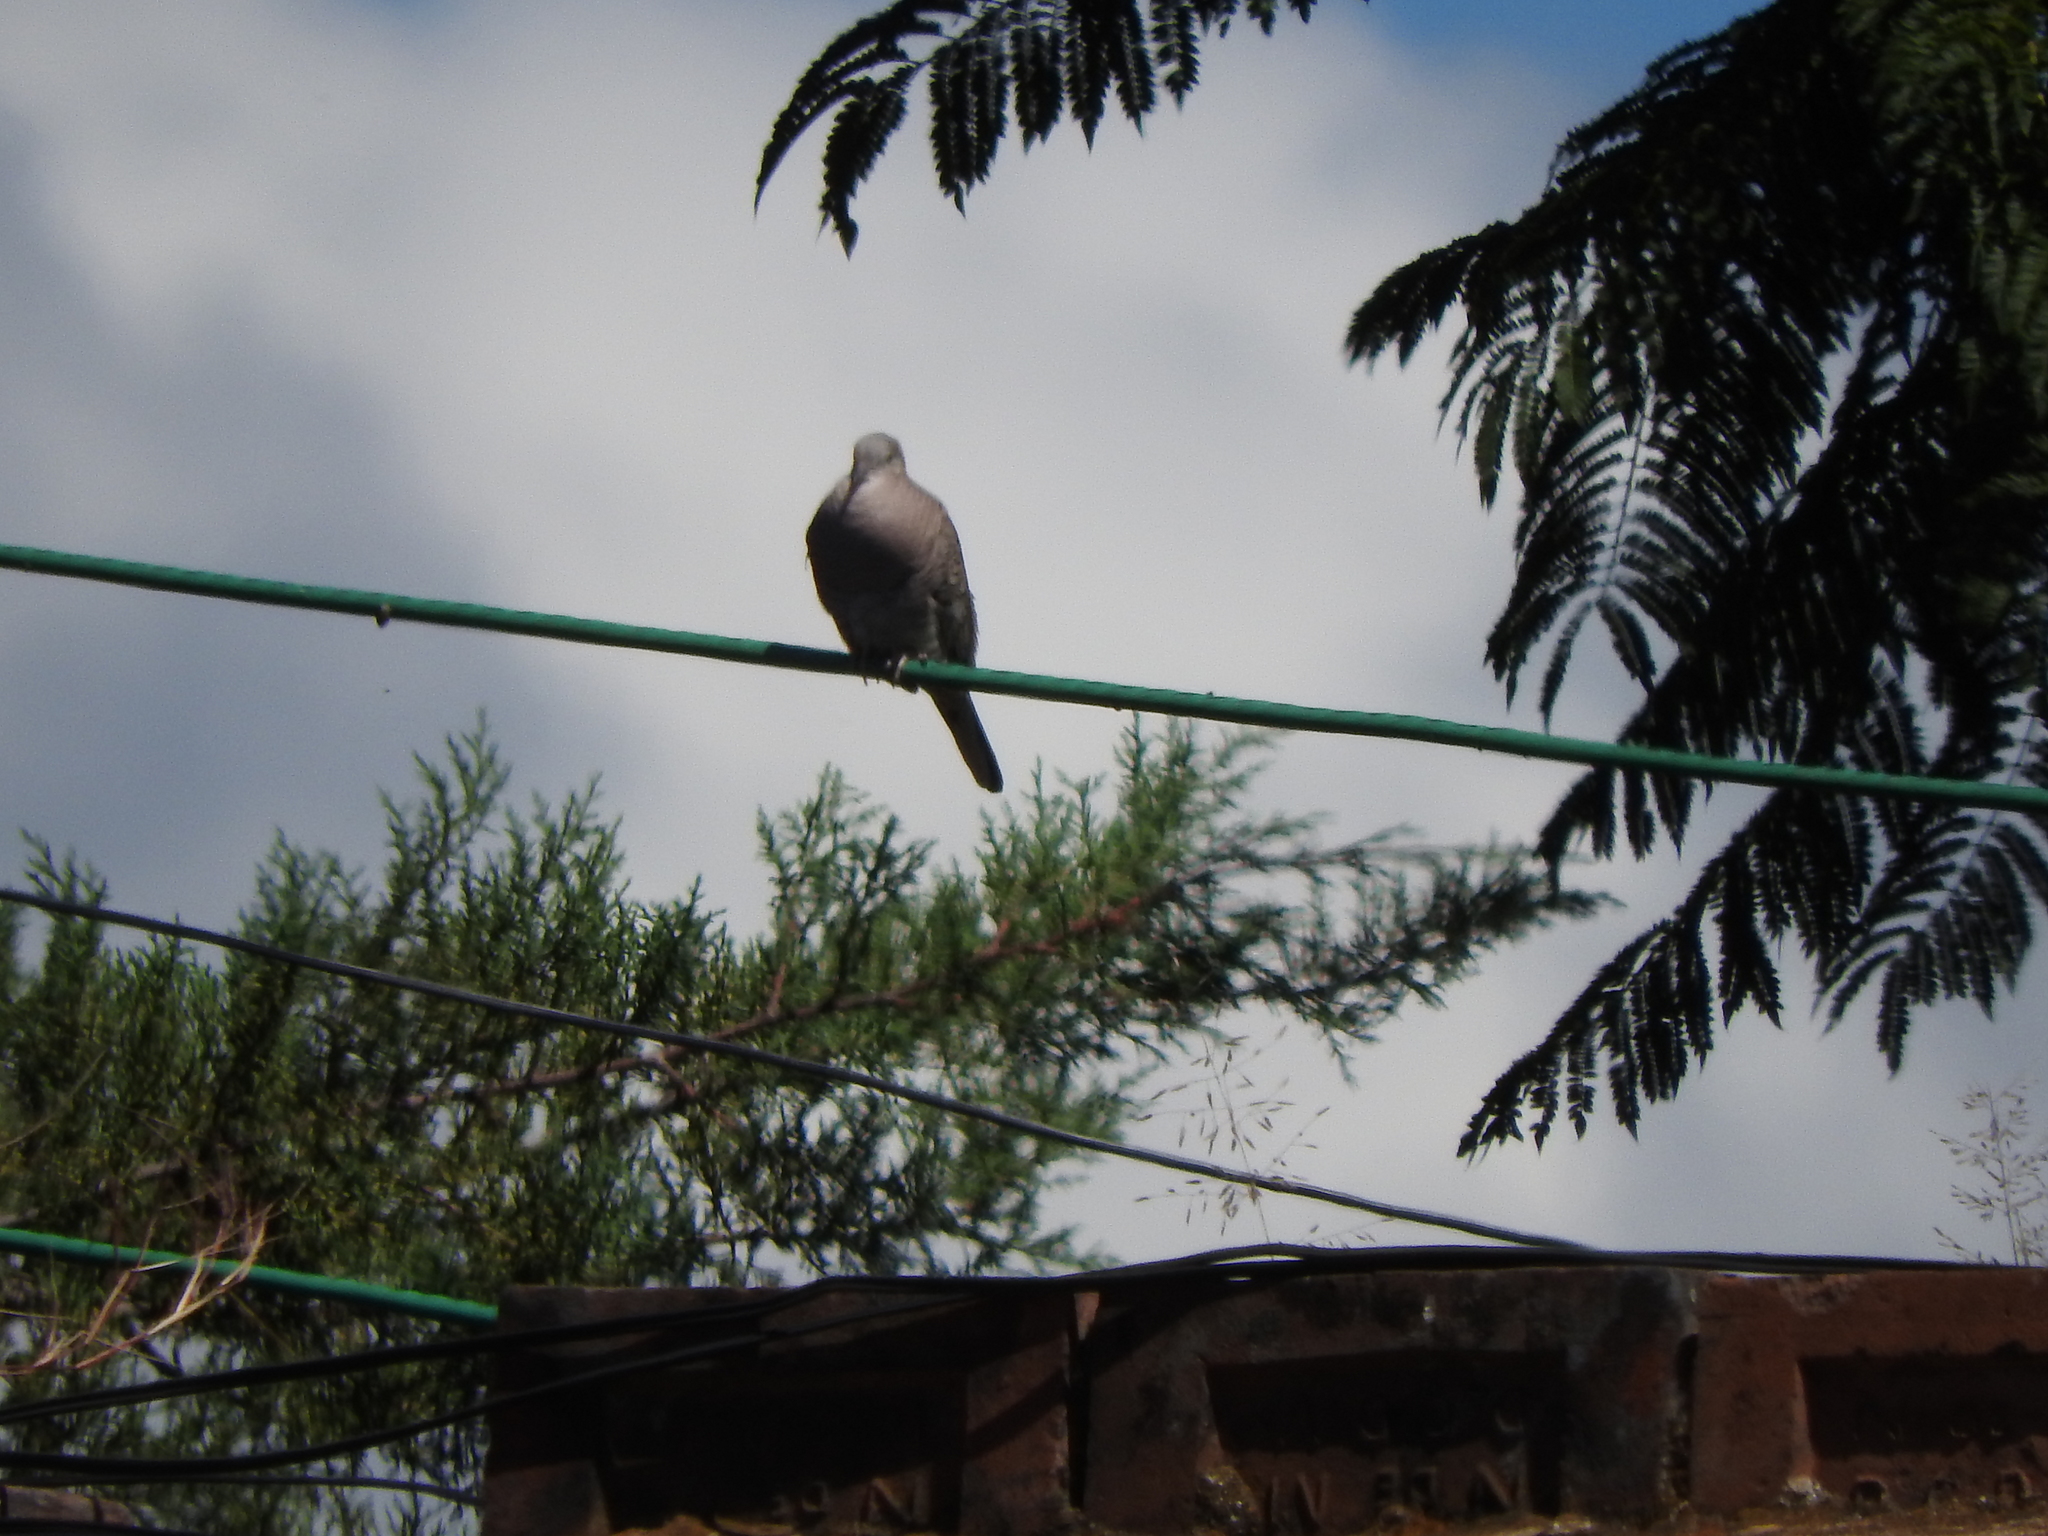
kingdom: Animalia
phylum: Chordata
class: Aves
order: Columbiformes
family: Columbidae
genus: Columbina
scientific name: Columbina inca
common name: Inca dove
